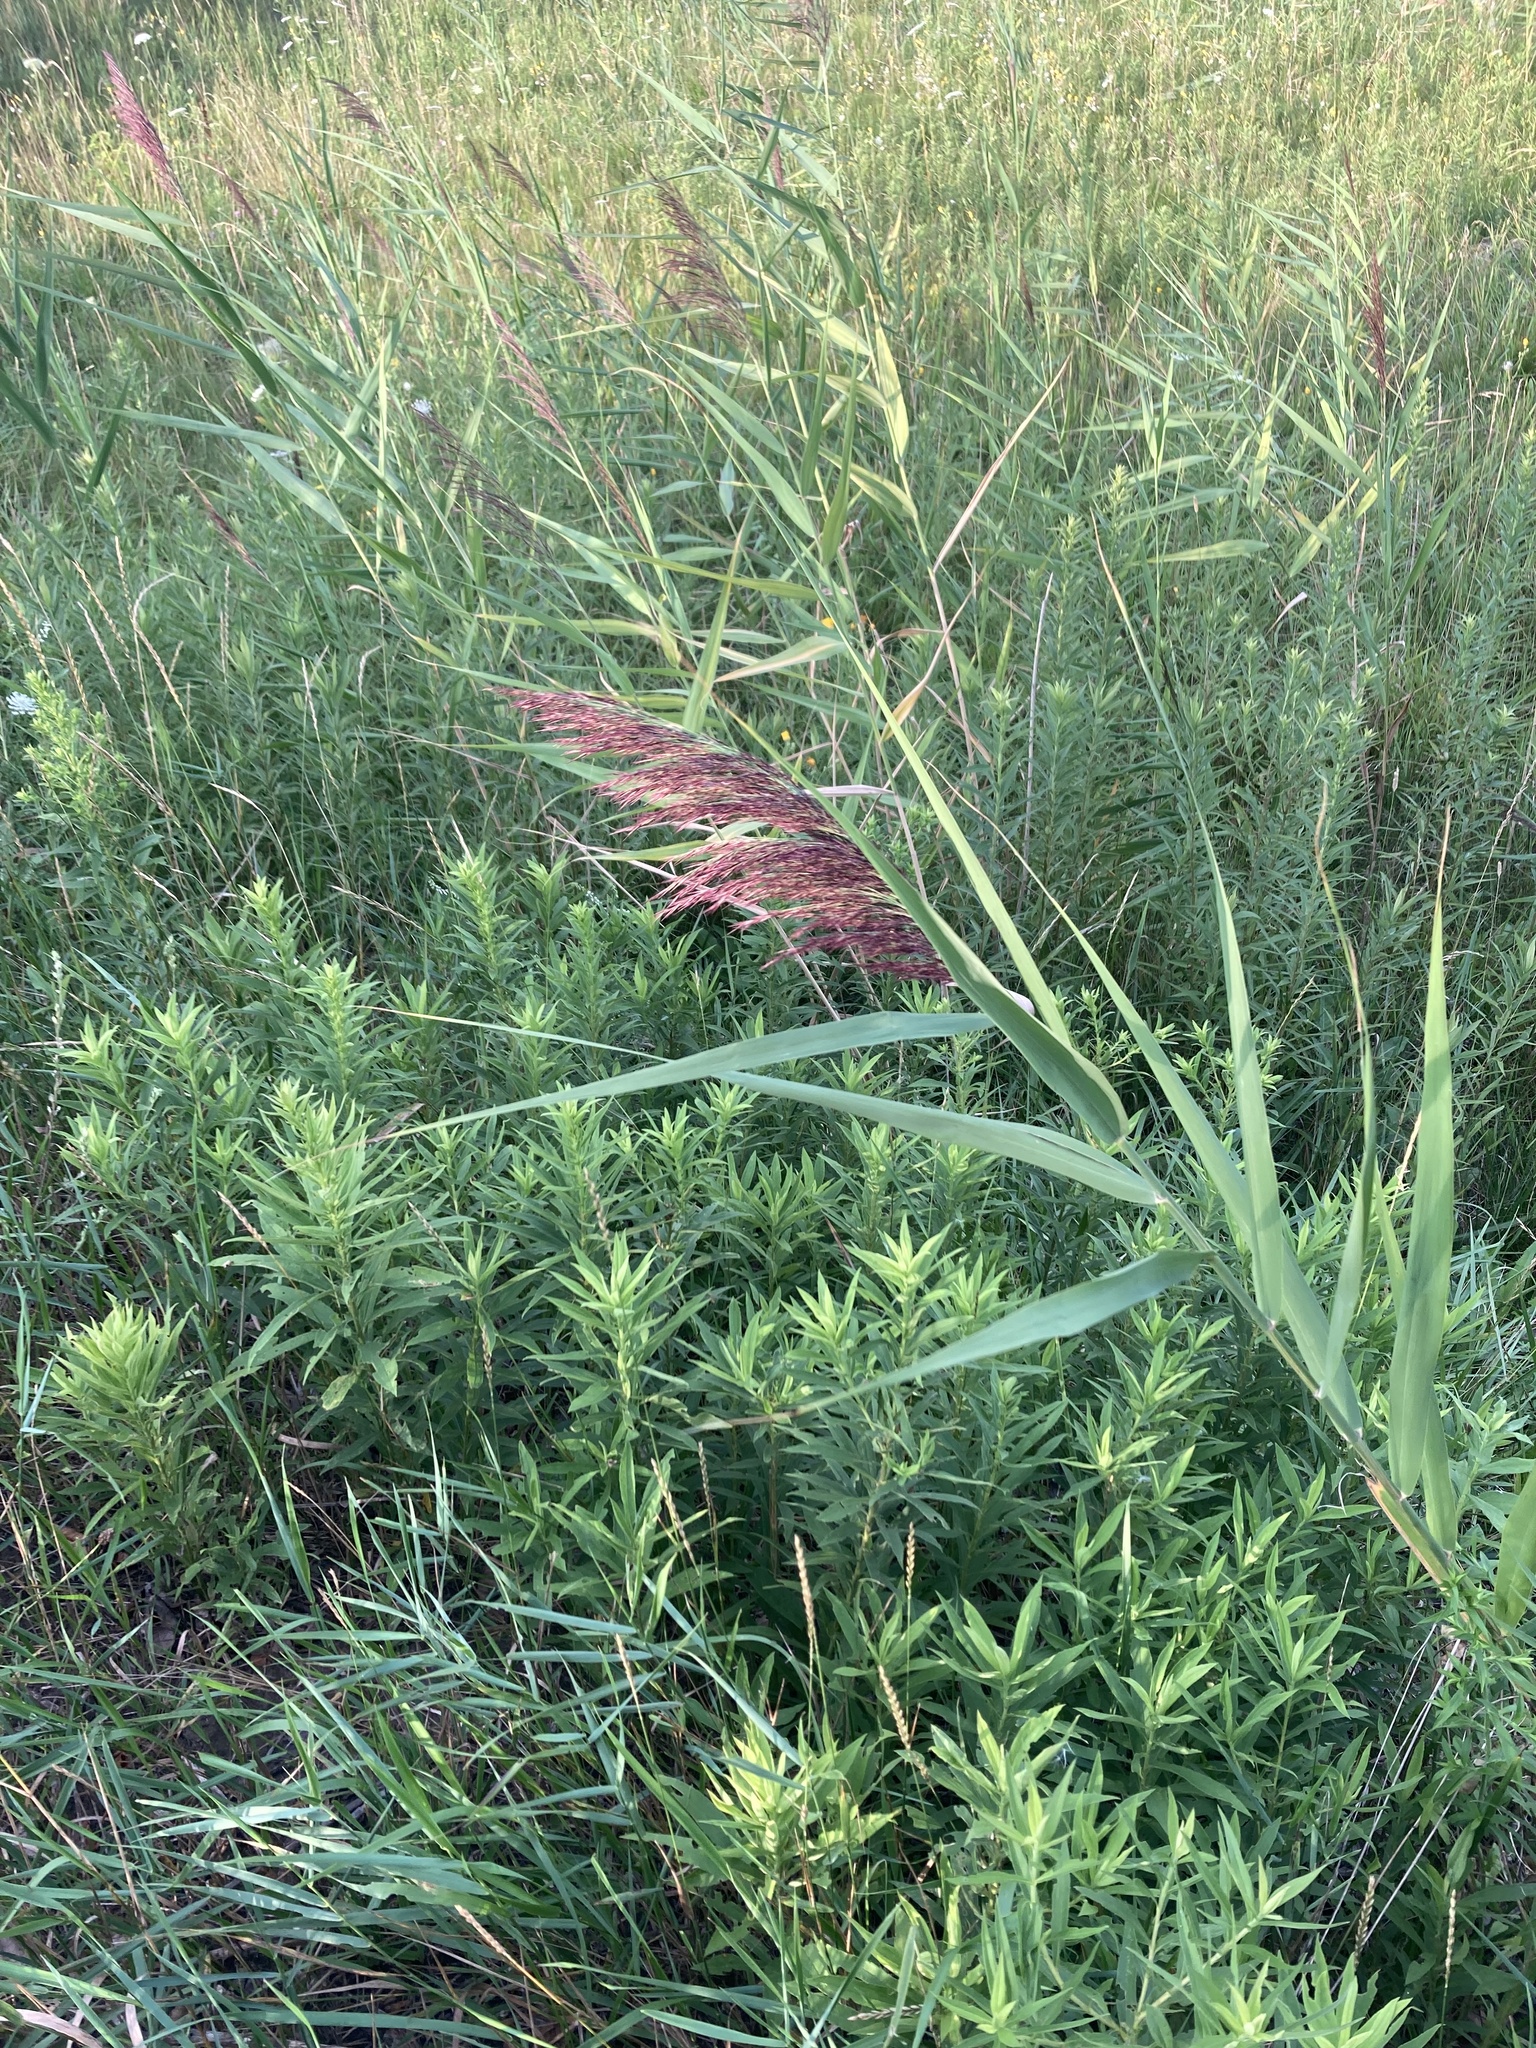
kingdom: Plantae
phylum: Tracheophyta
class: Liliopsida
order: Poales
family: Poaceae
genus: Phragmites
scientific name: Phragmites australis
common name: Common reed
